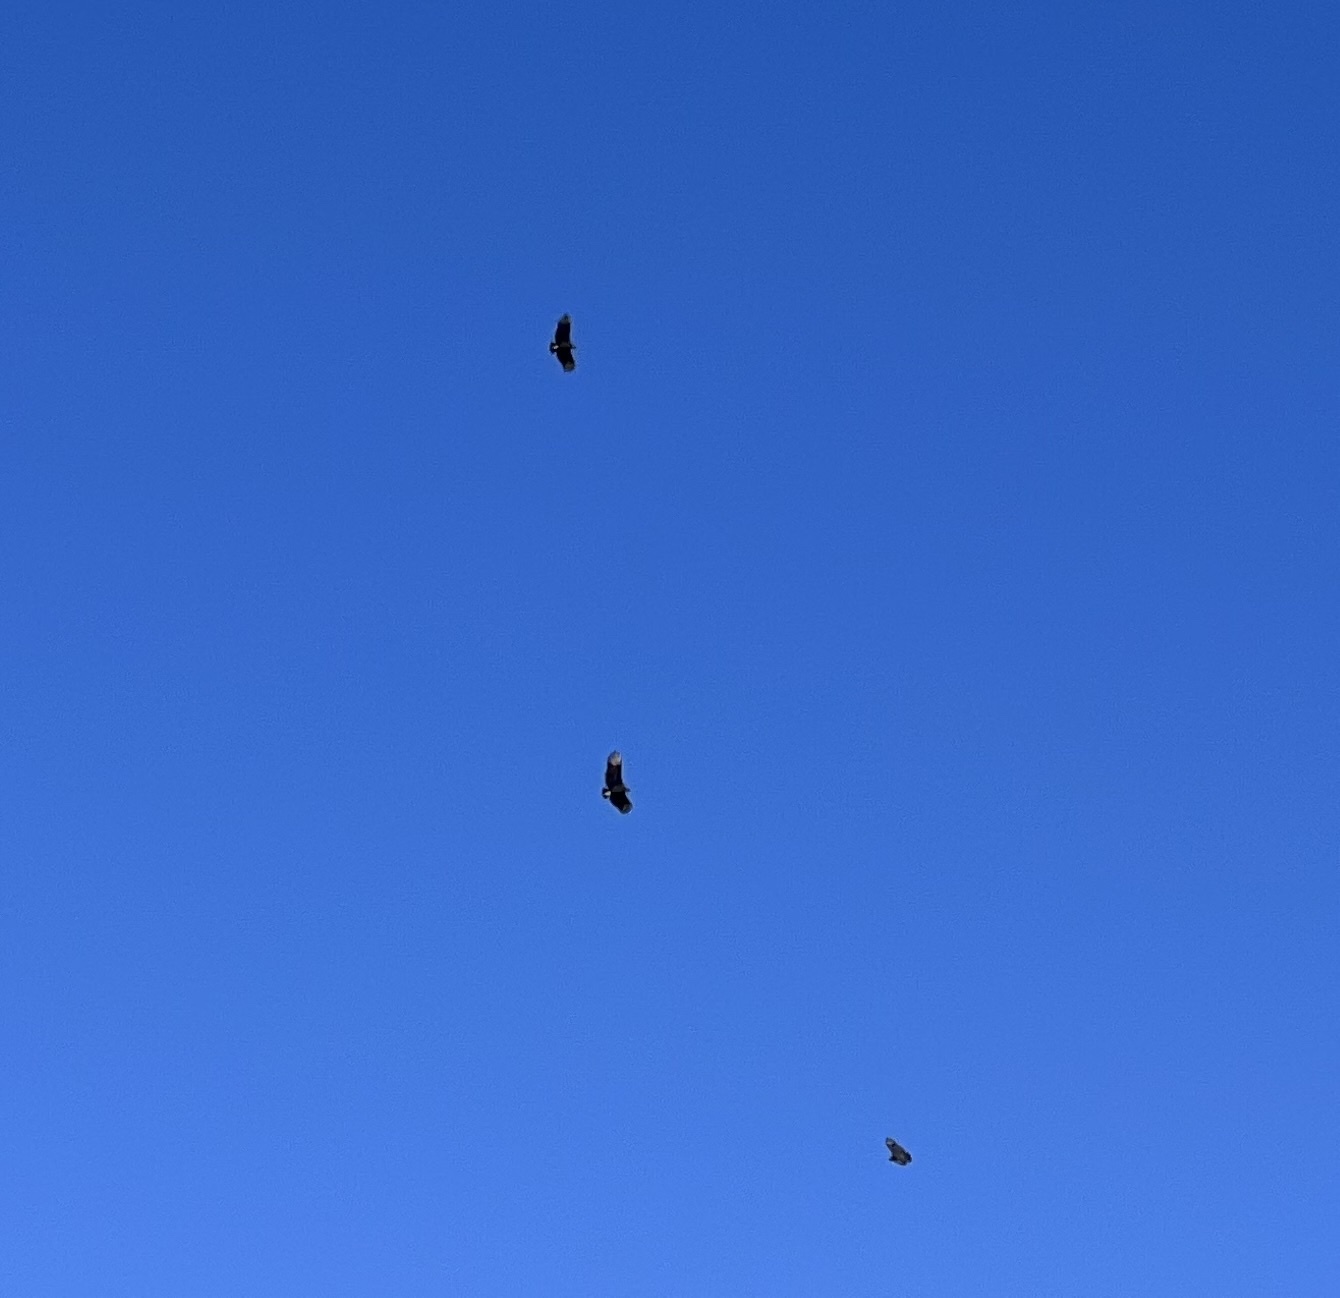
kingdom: Animalia
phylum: Chordata
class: Aves
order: Accipitriformes
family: Cathartidae
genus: Coragyps
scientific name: Coragyps atratus
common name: Black vulture
